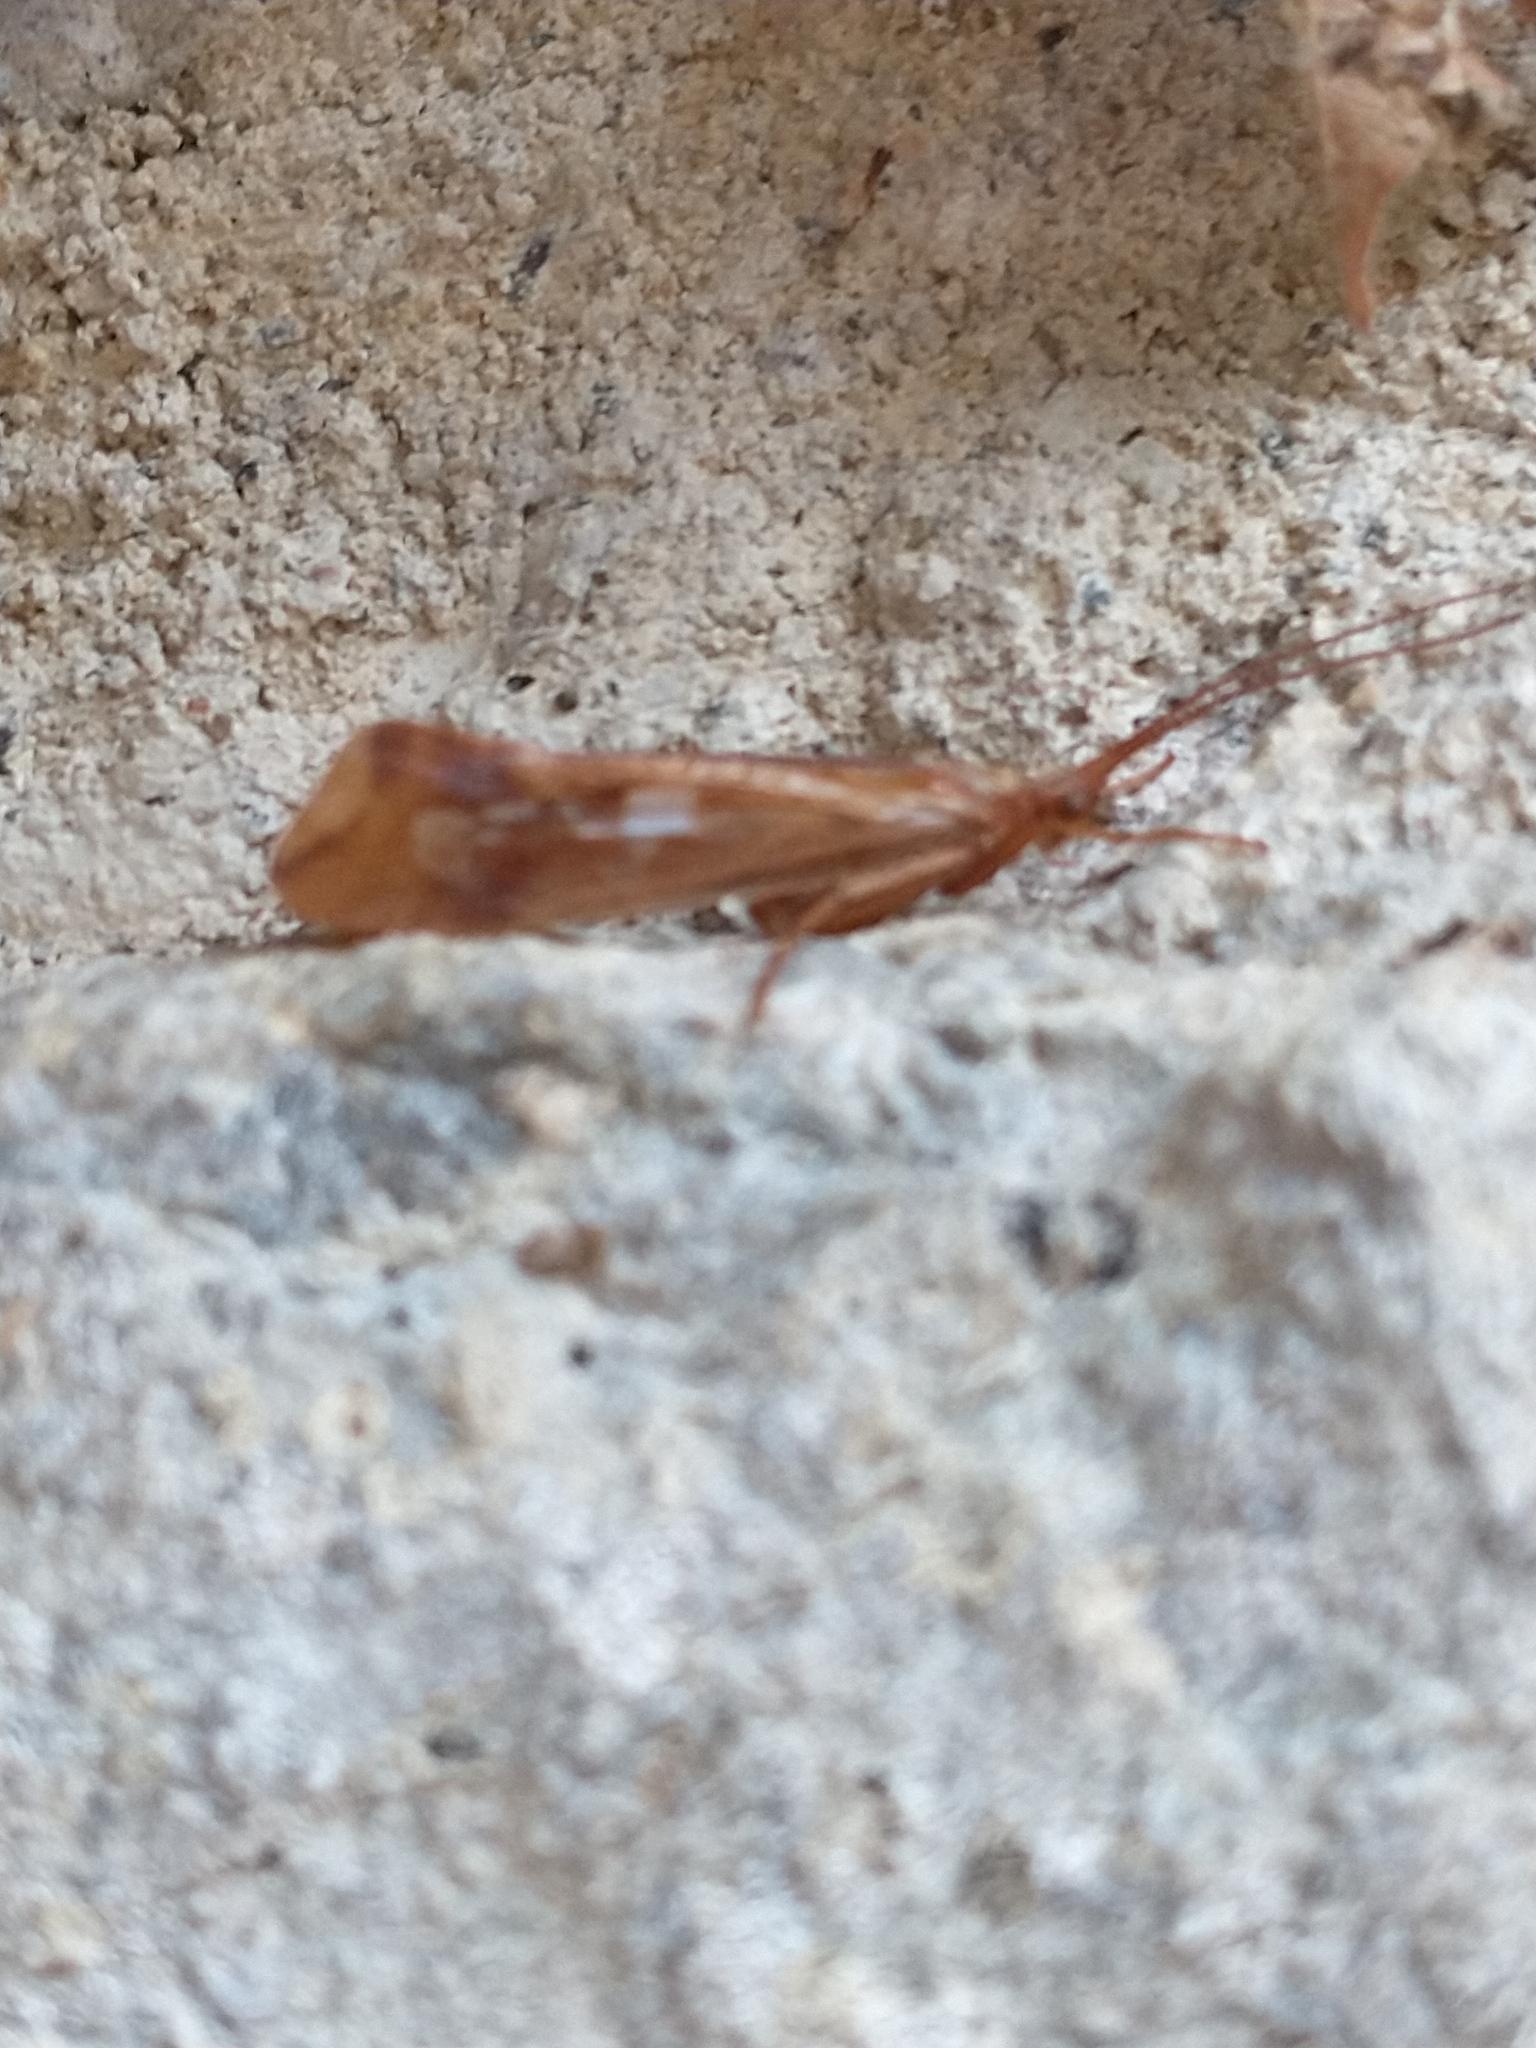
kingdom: Animalia
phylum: Arthropoda
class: Insecta
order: Trichoptera
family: Limnephilidae
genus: Limnephilus
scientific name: Limnephilus lunatus
